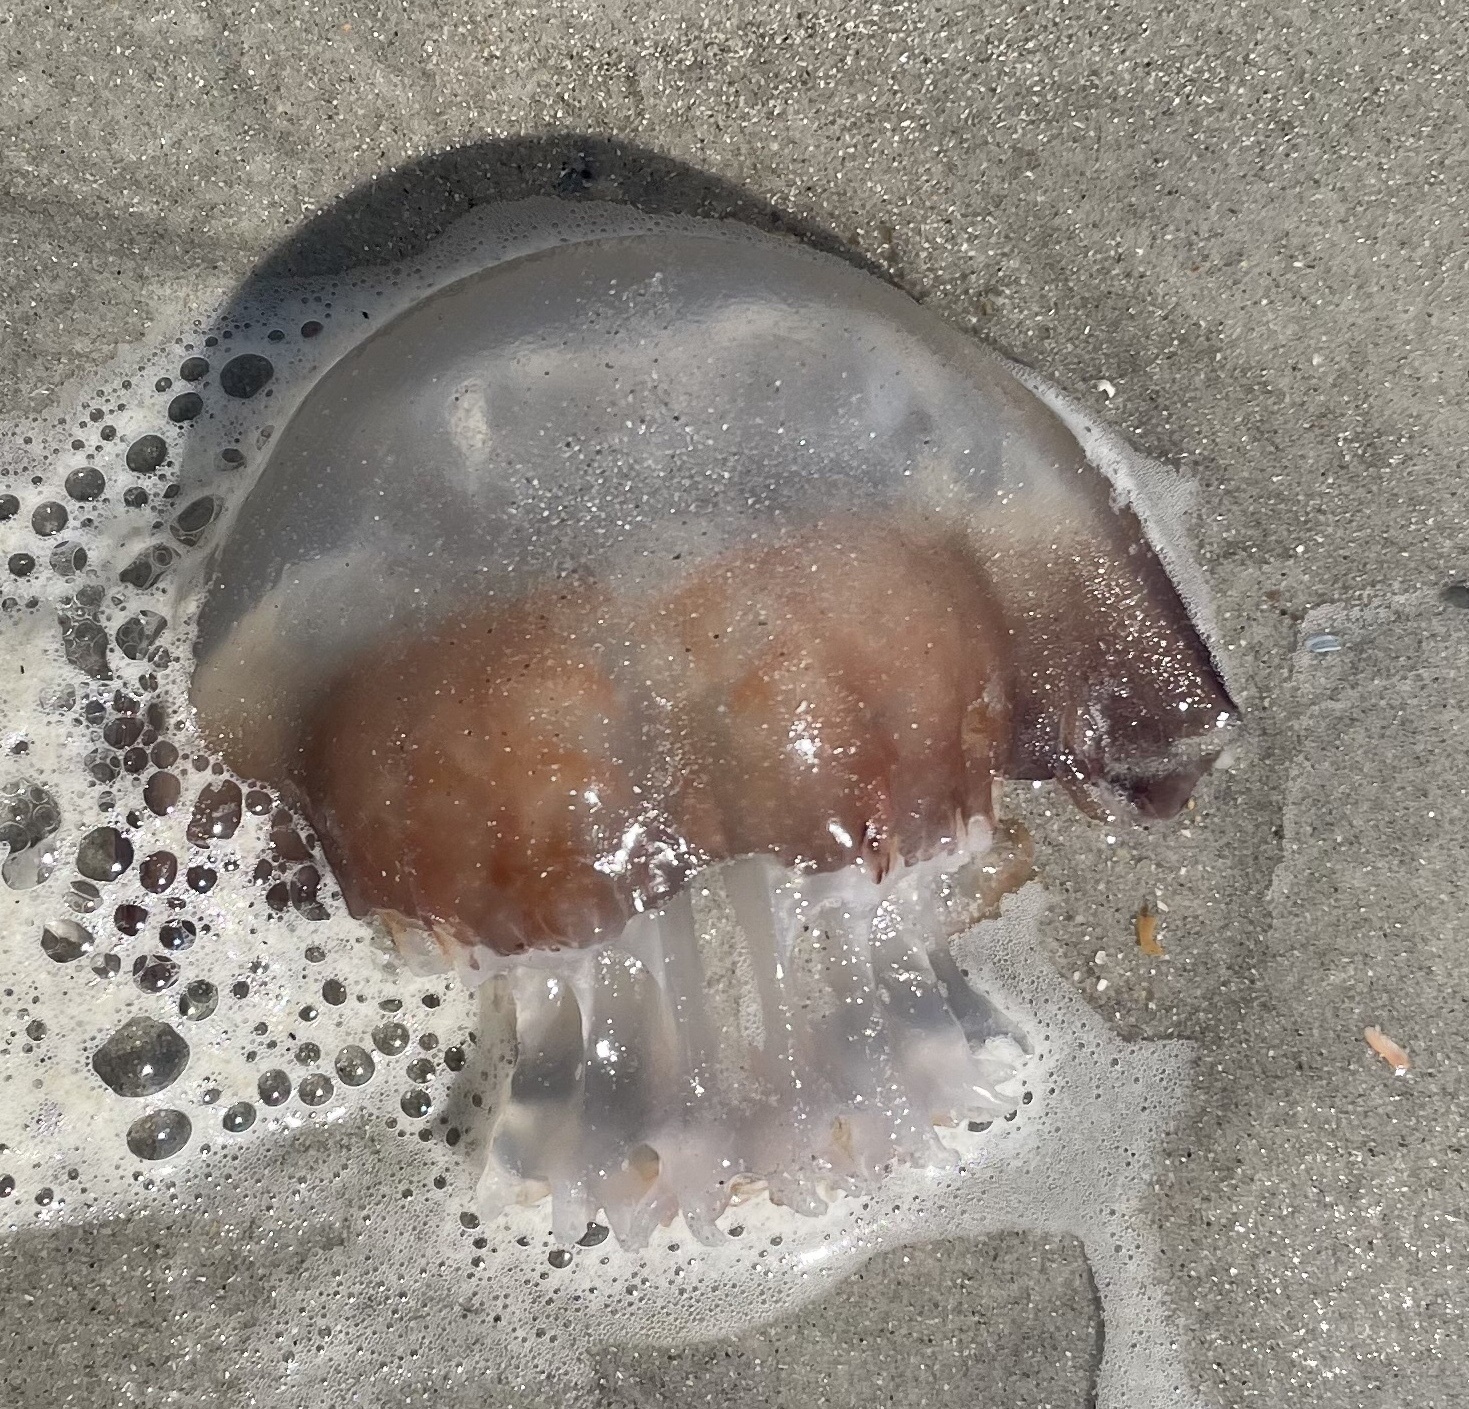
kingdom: Animalia
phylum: Cnidaria
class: Scyphozoa
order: Rhizostomeae
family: Stomolophidae
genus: Stomolophus
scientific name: Stomolophus meleagris
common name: Cabbagehead
